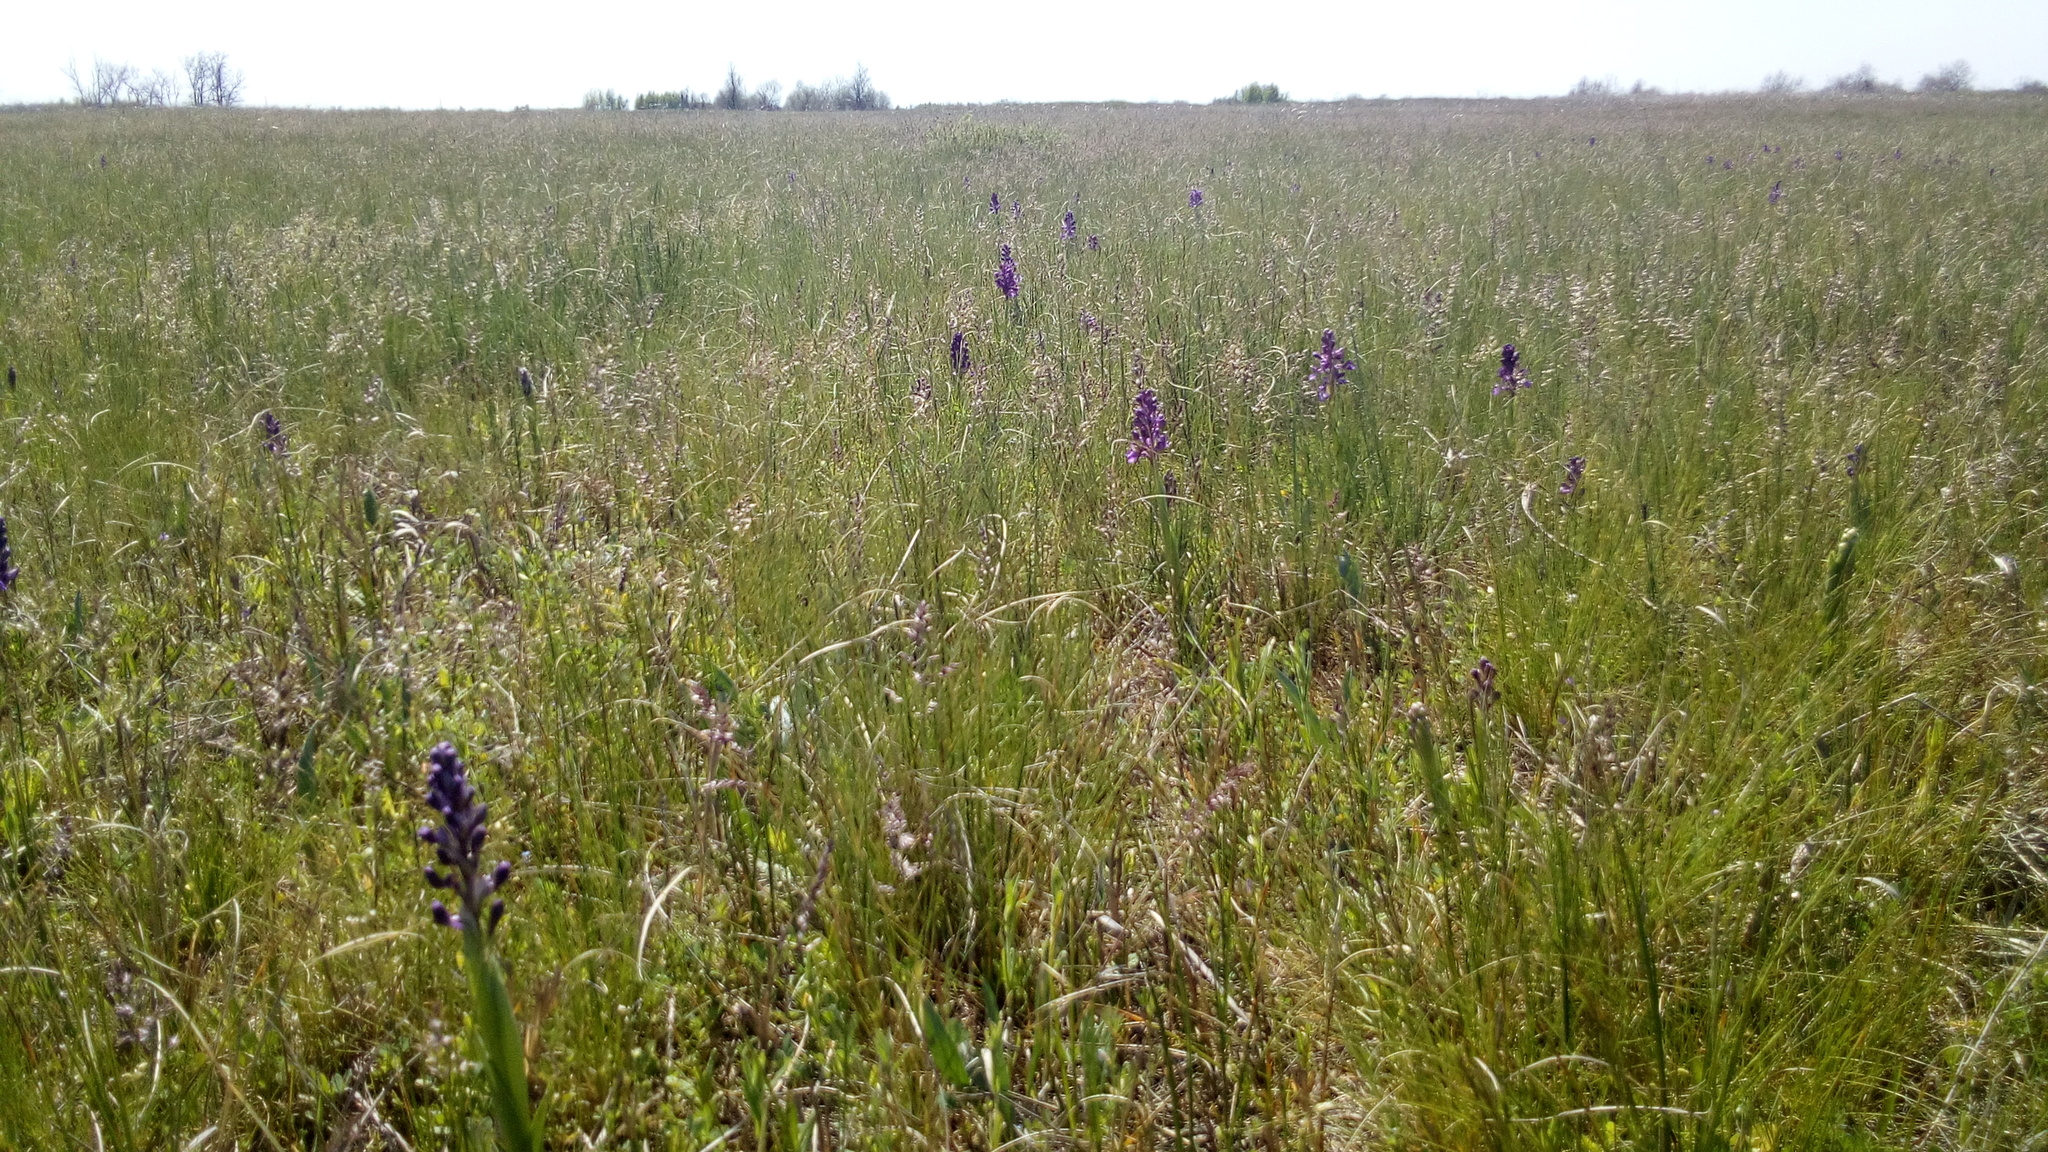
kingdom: Plantae
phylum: Tracheophyta
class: Liliopsida
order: Asparagales
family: Orchidaceae
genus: Anacamptis
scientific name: Anacamptis morio
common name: Green-winged orchid
